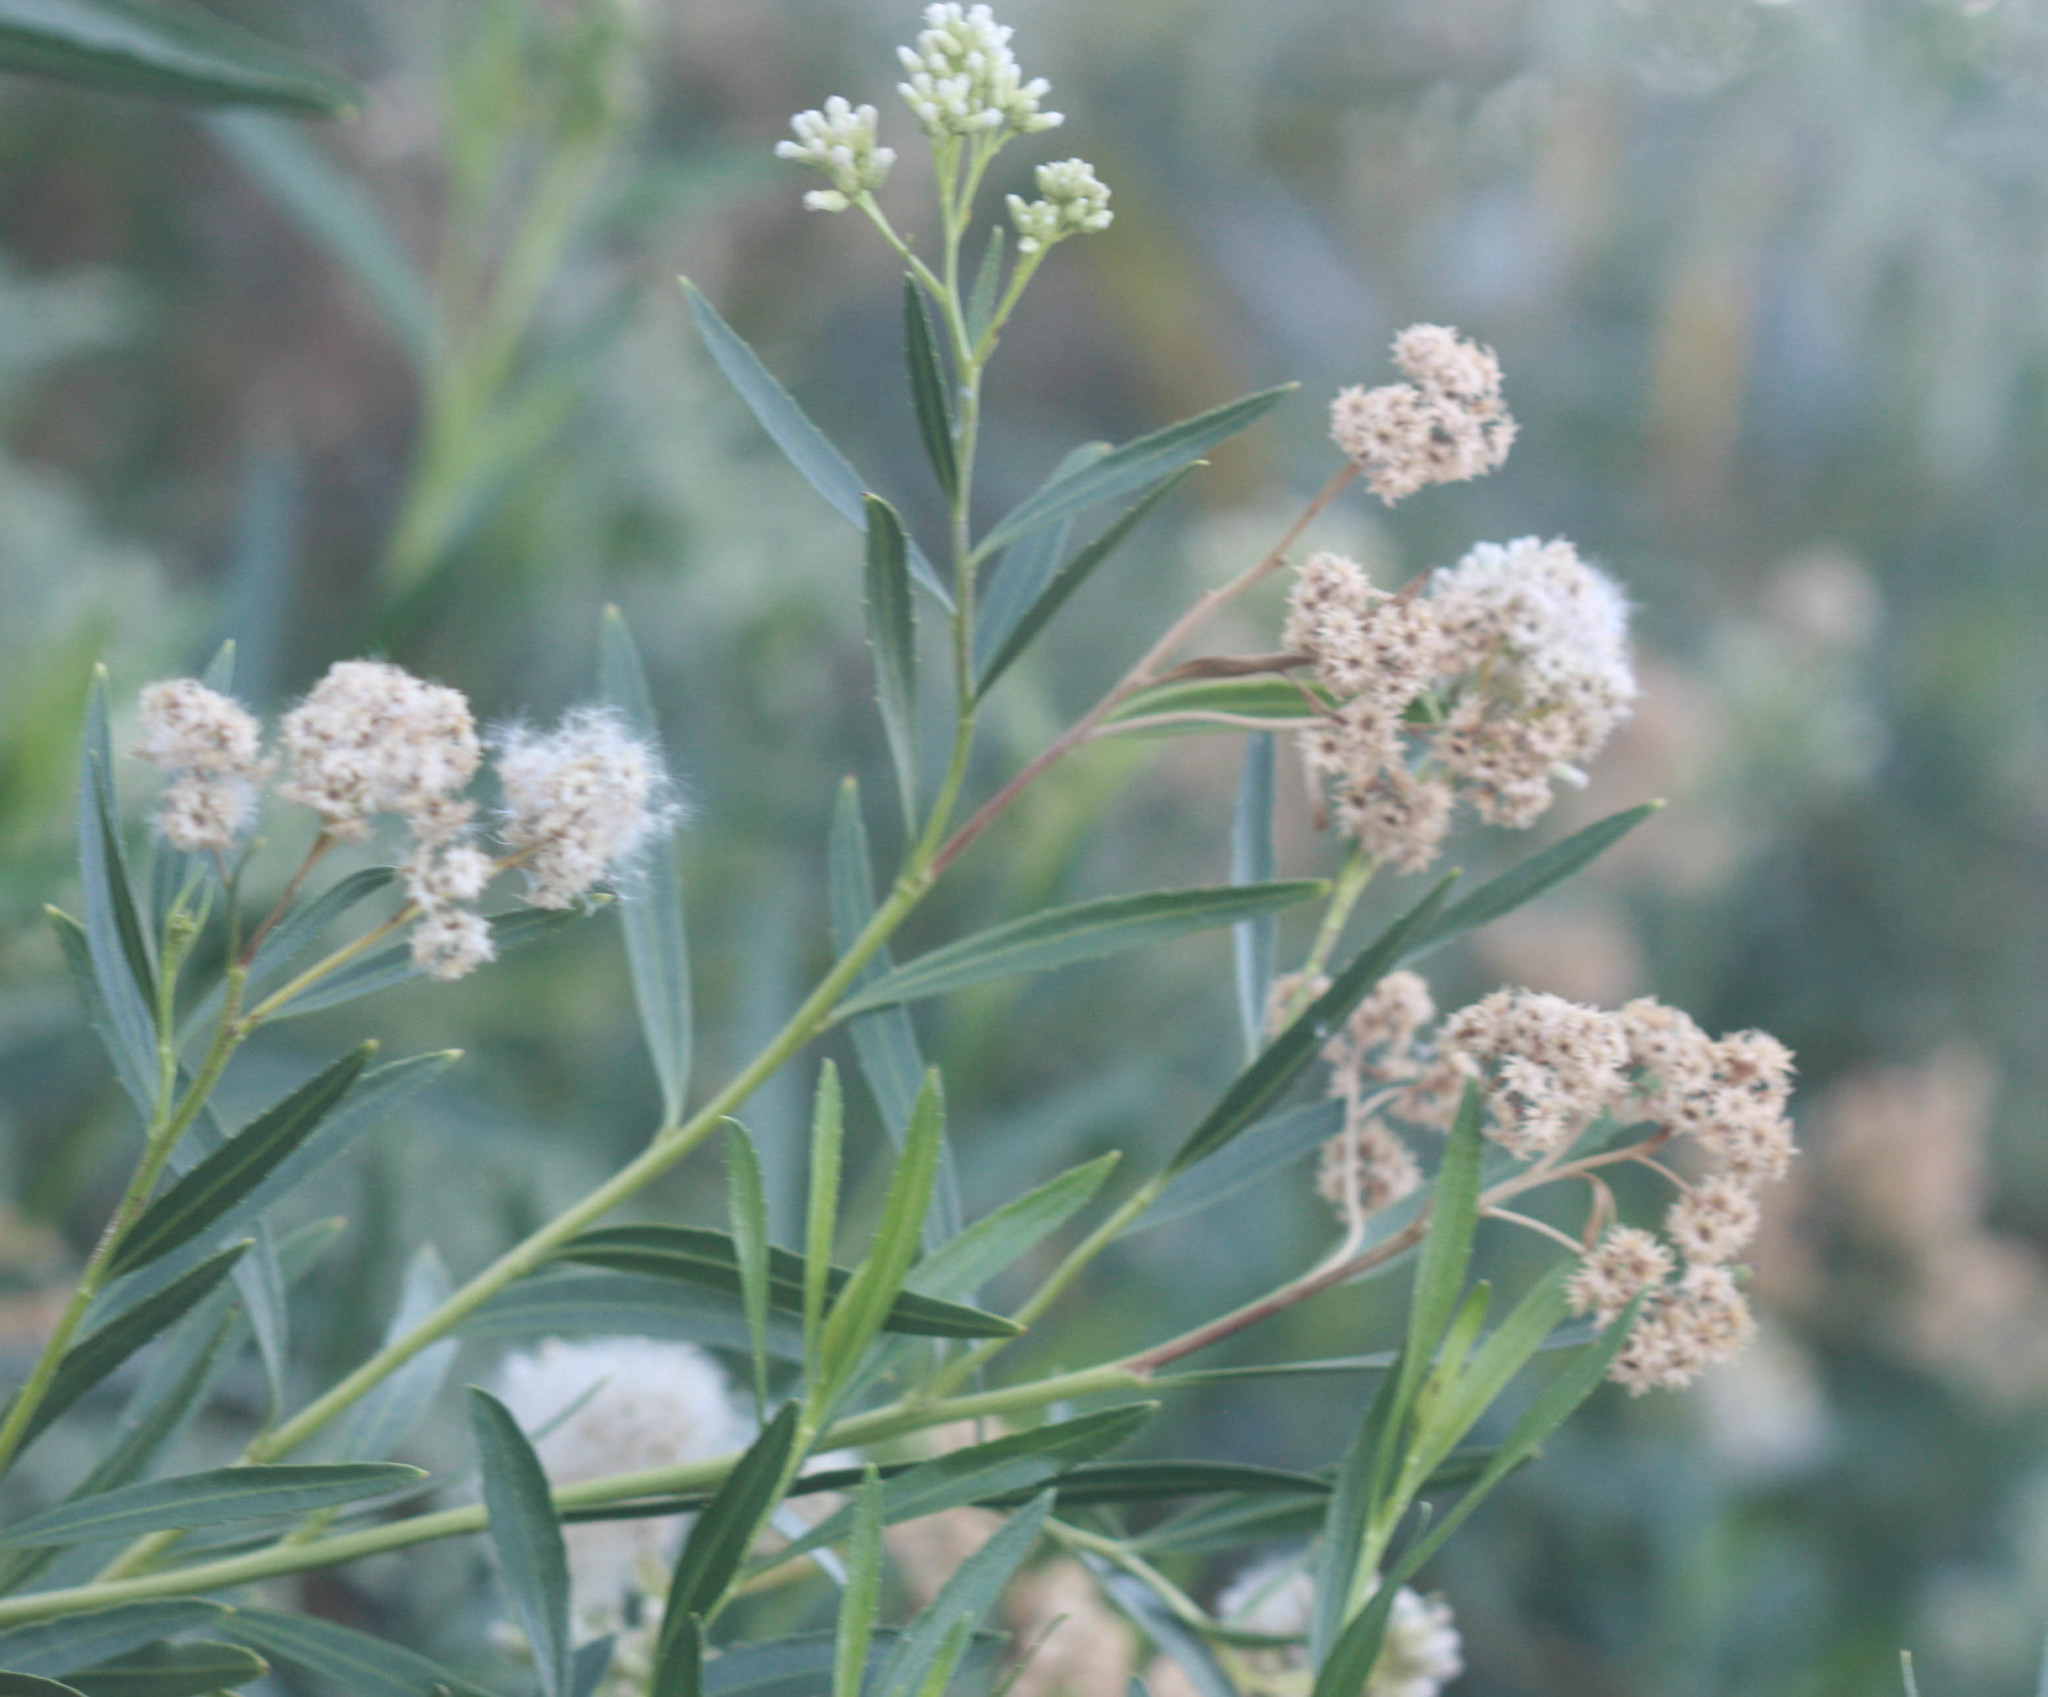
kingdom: Plantae
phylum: Tracheophyta
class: Magnoliopsida
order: Asterales
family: Asteraceae
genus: Baccharis
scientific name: Baccharis salicifolia
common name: Sticky baccharis
